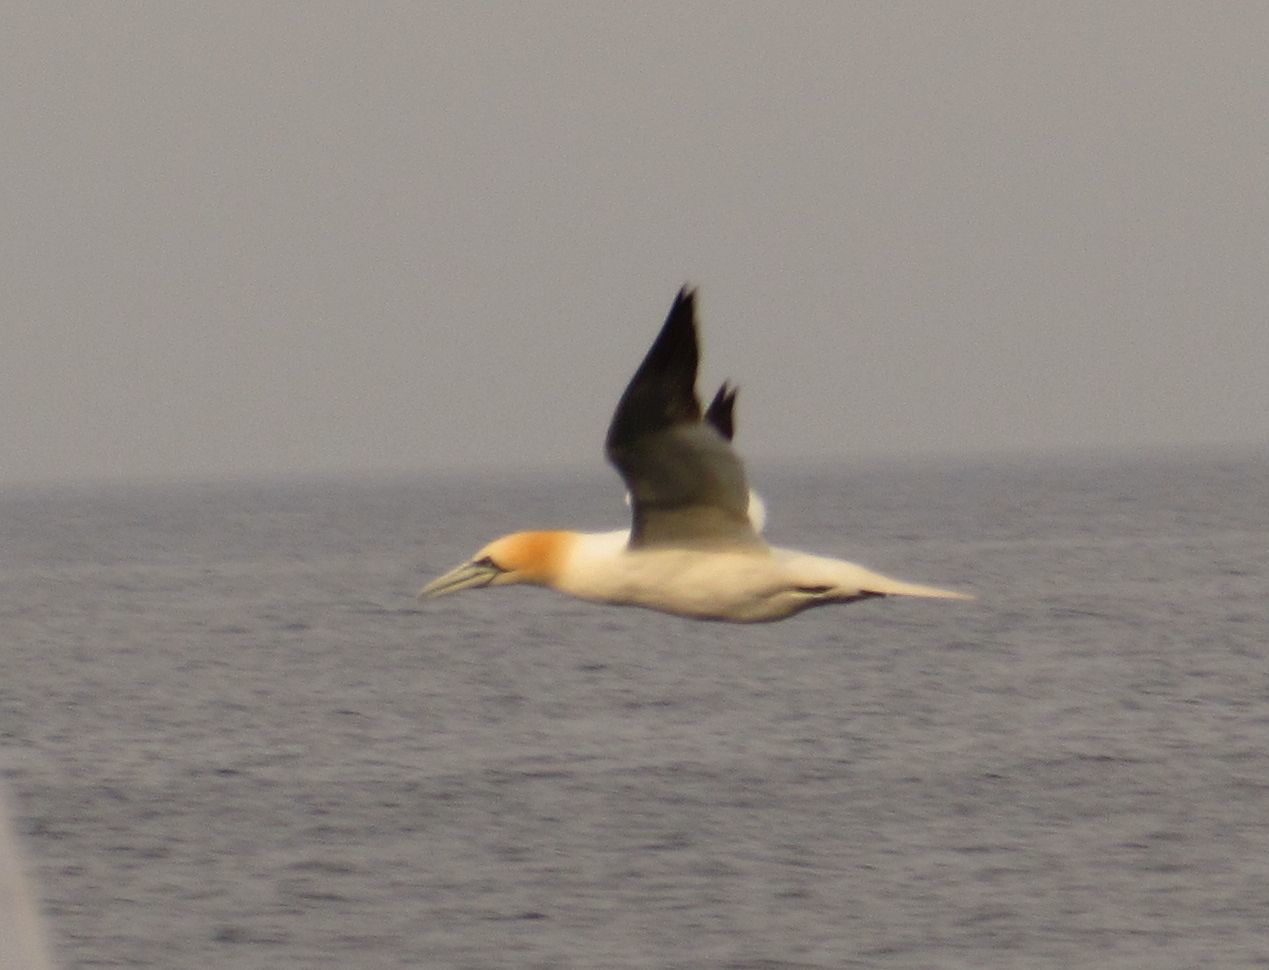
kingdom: Animalia
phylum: Chordata
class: Aves
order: Suliformes
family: Sulidae
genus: Morus
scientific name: Morus bassanus
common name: Northern gannet
